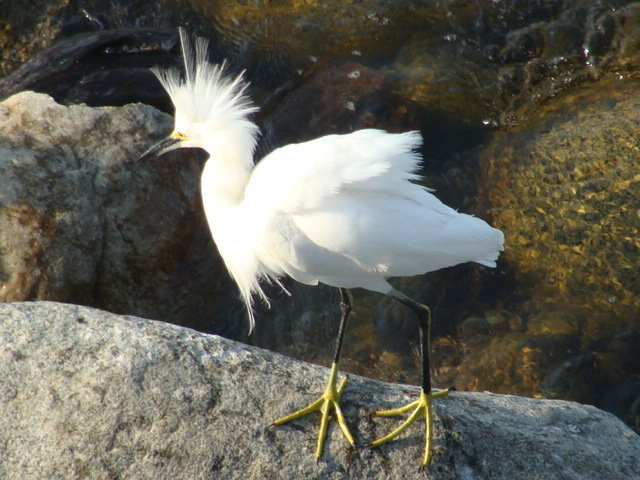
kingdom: Animalia
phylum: Chordata
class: Aves
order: Pelecaniformes
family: Ardeidae
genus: Egretta
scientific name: Egretta thula
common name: Snowy egret
